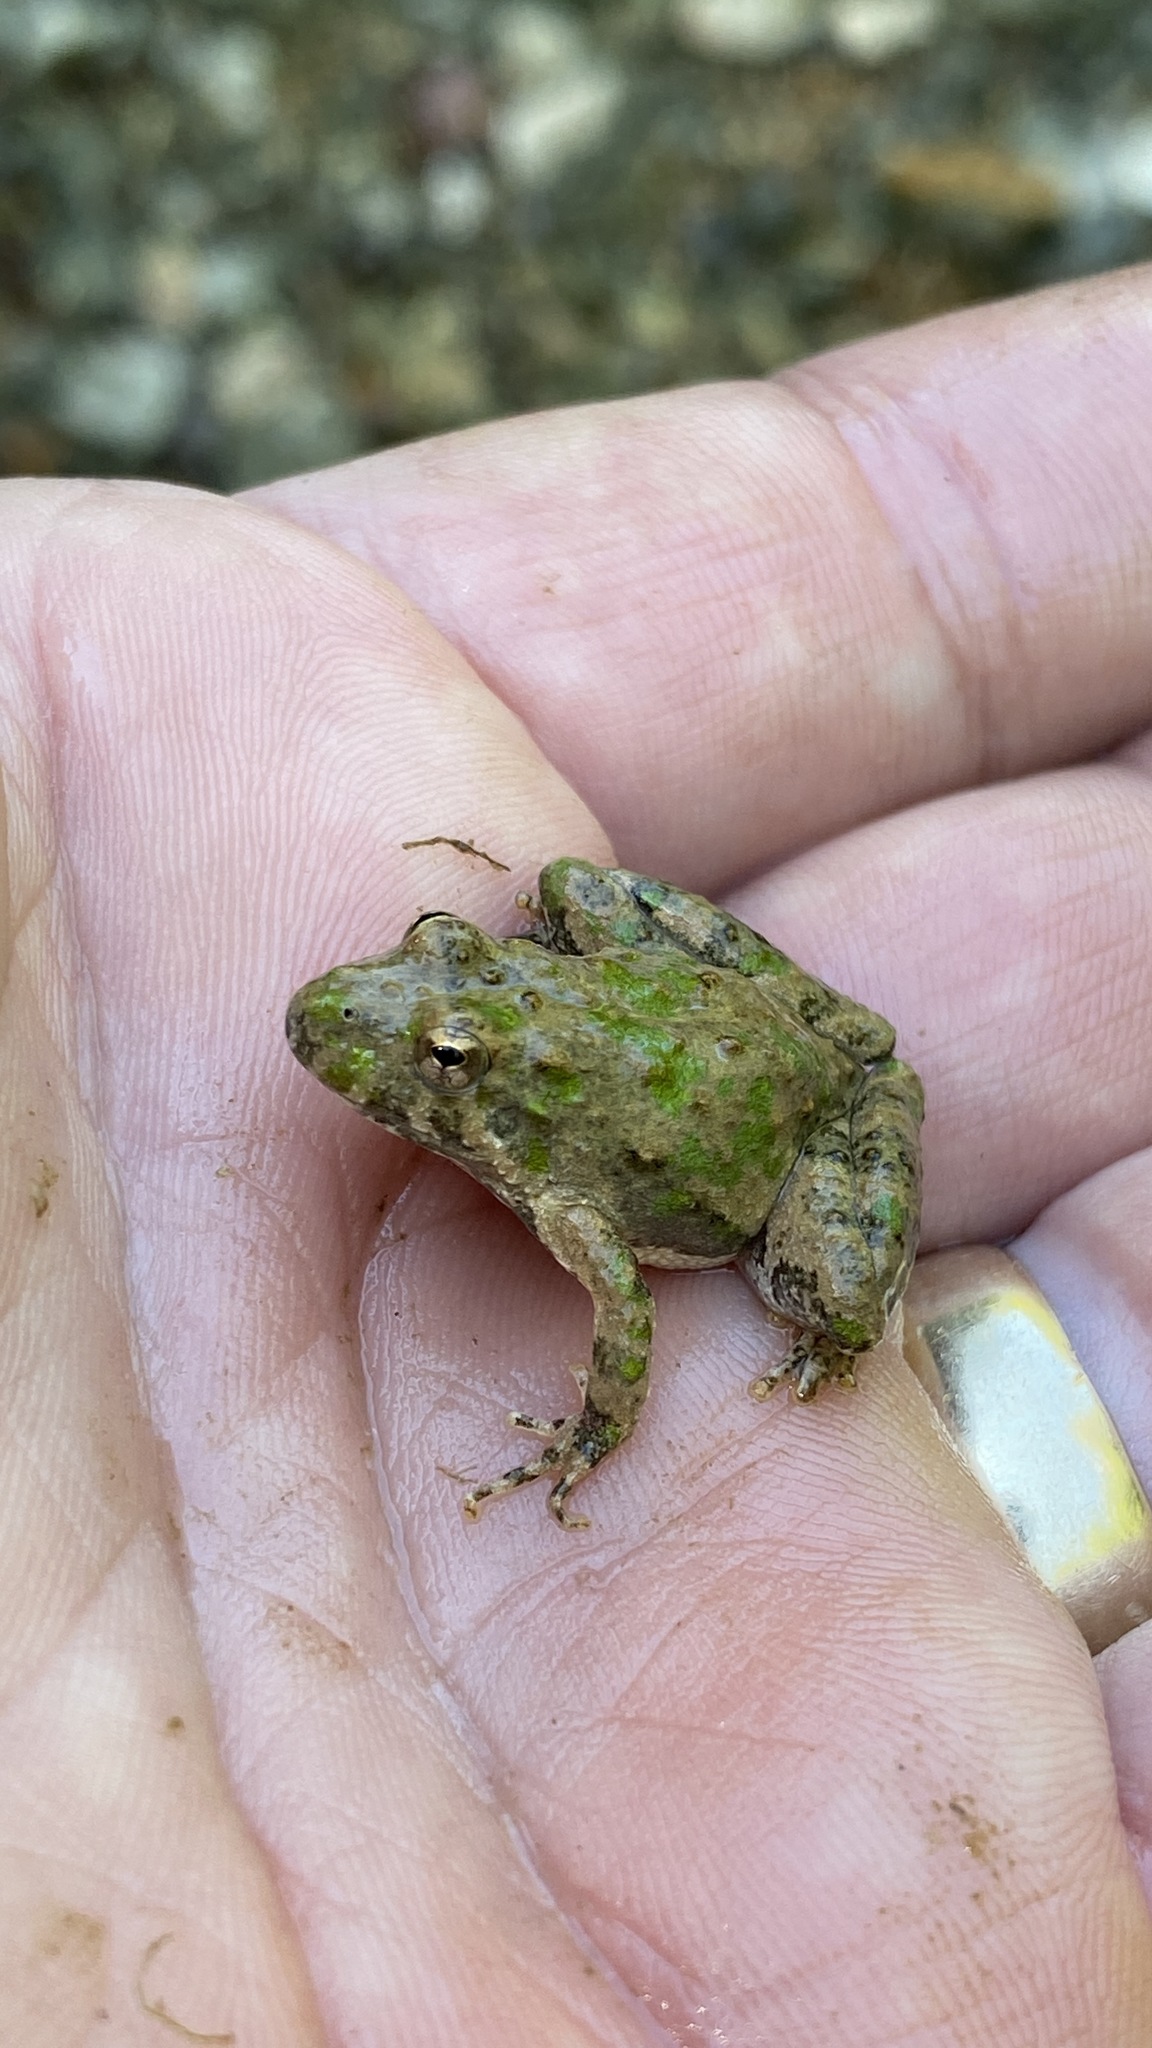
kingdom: Animalia
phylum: Chordata
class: Amphibia
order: Anura
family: Hylidae
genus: Acris
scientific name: Acris blanchardi
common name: Blanchard's cricket frog
